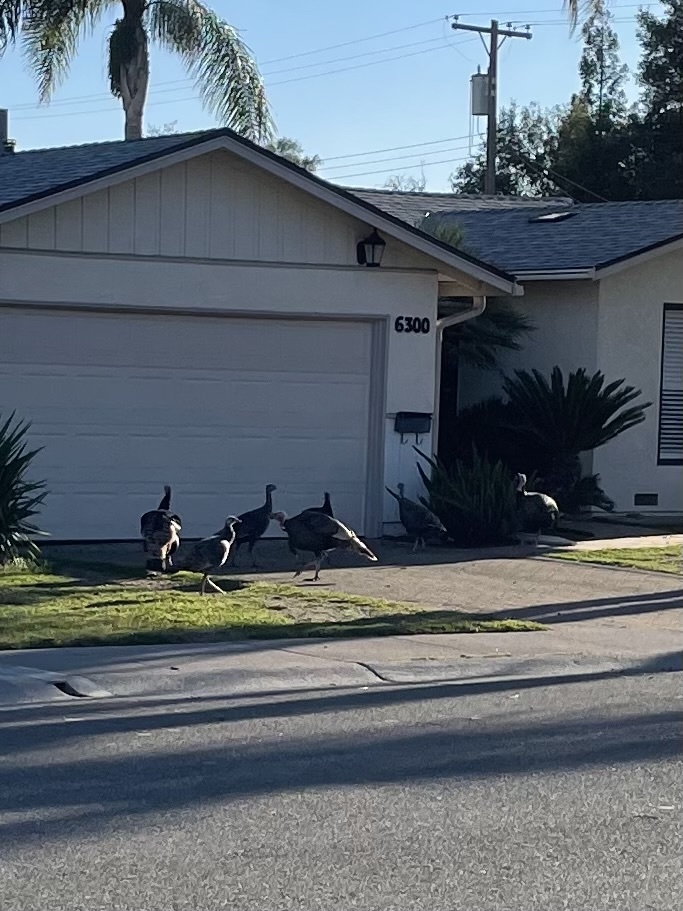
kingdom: Animalia
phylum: Chordata
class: Aves
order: Galliformes
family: Phasianidae
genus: Meleagris
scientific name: Meleagris gallopavo
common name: Wild turkey
